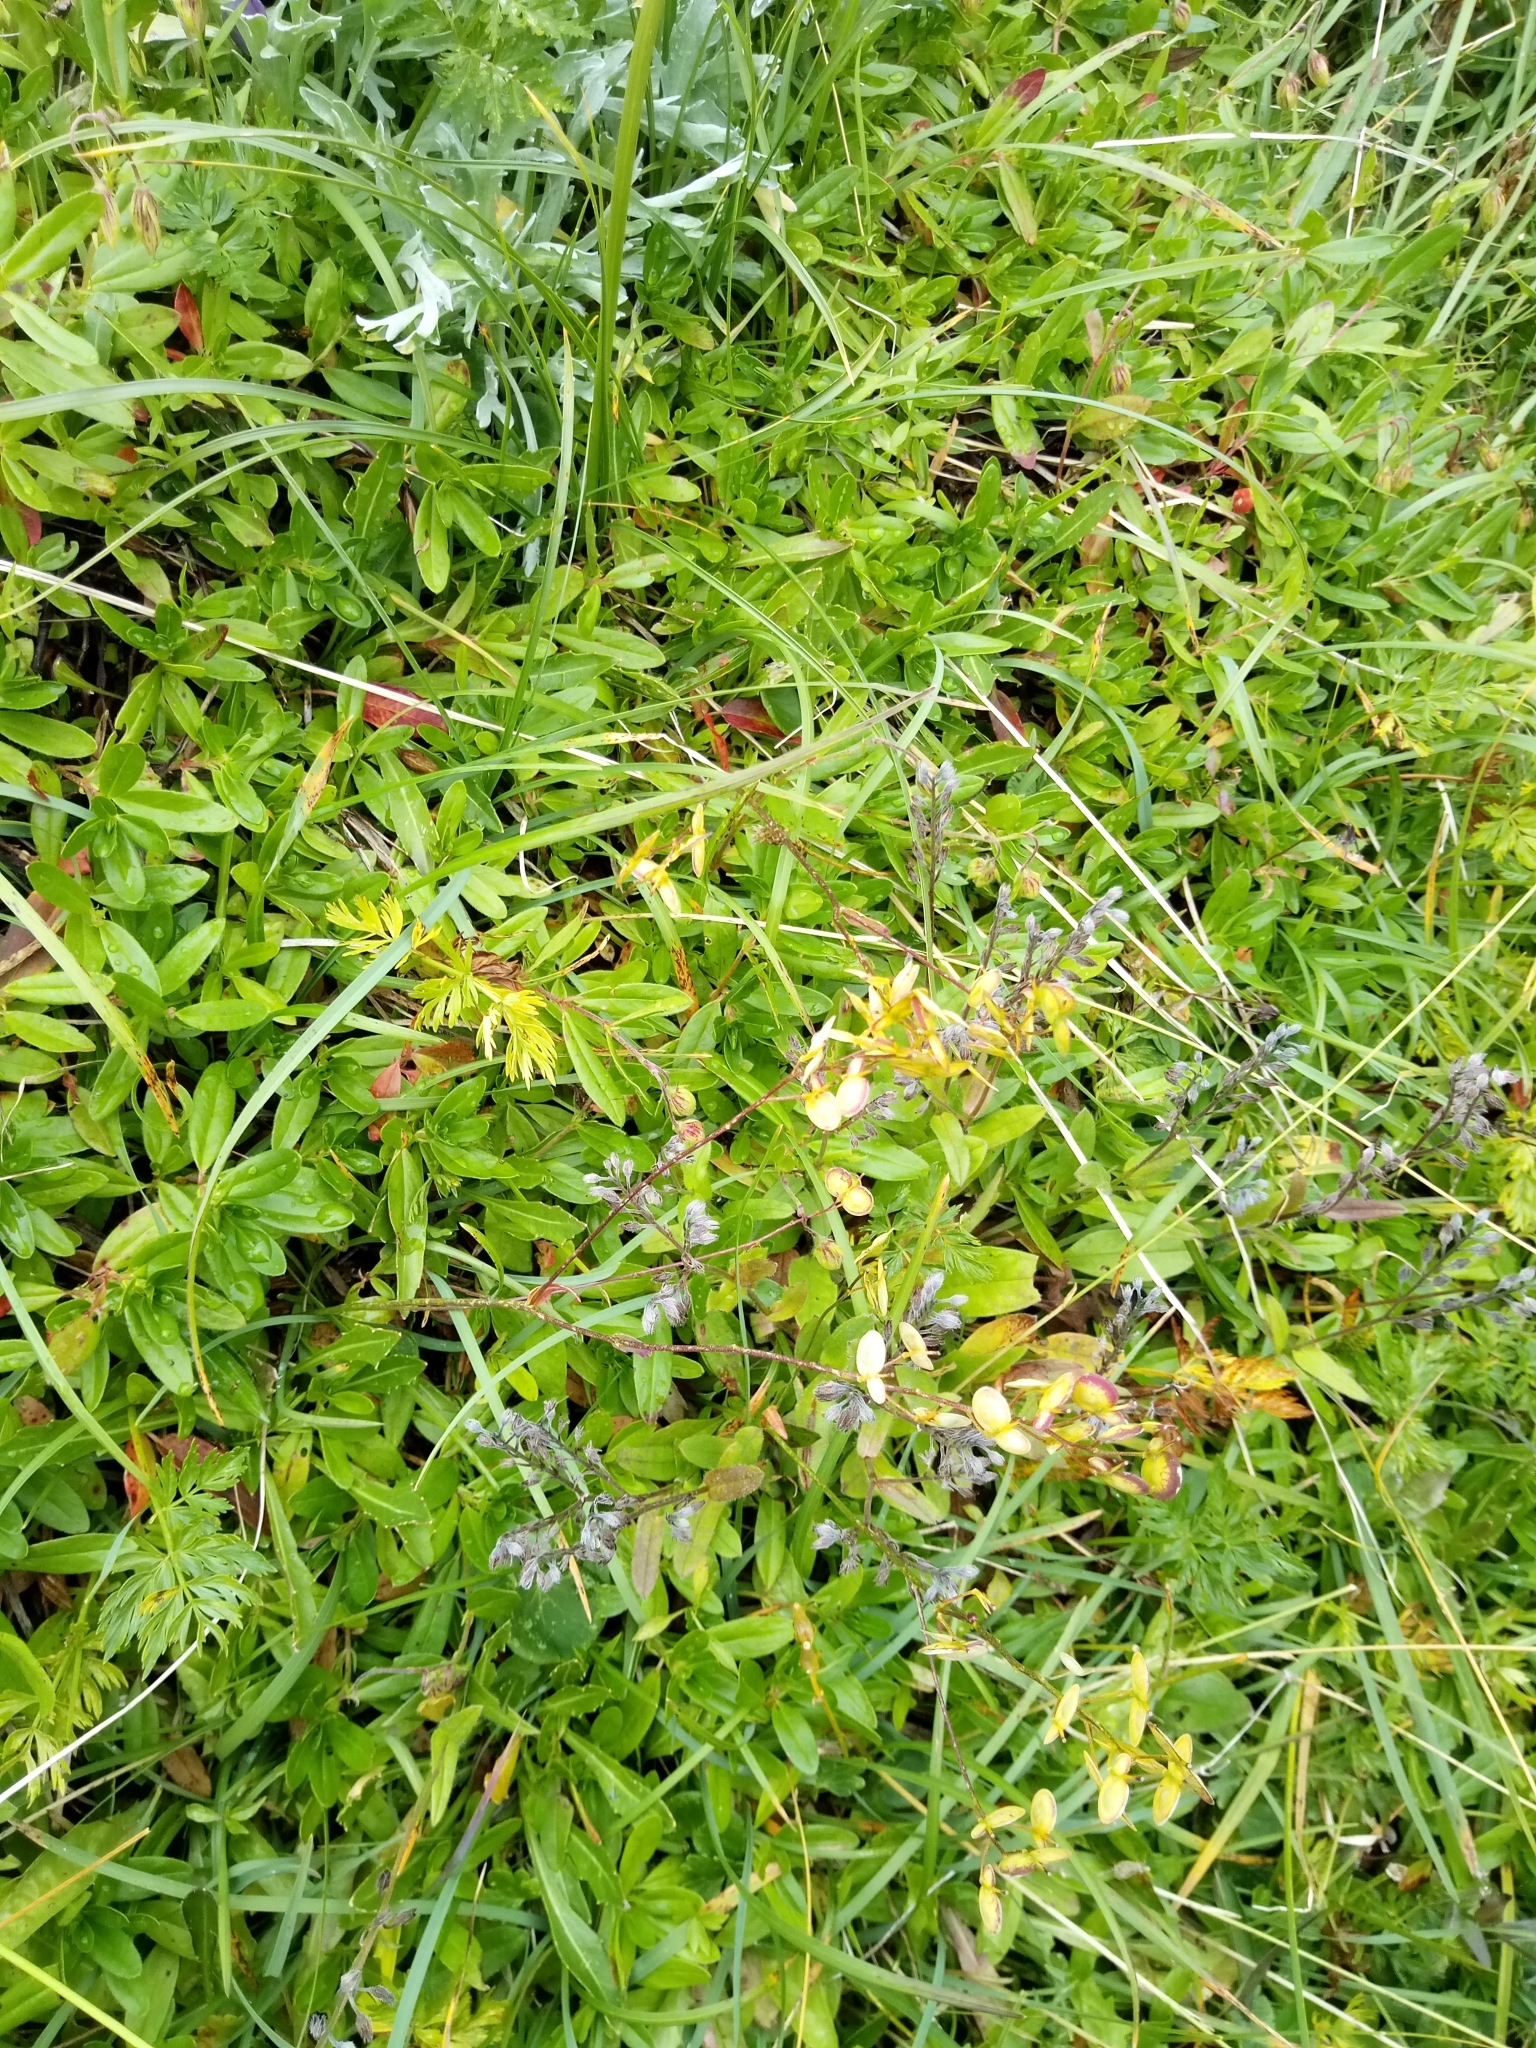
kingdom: Plantae
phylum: Tracheophyta
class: Magnoliopsida
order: Brassicales
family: Brassicaceae
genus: Biscutella
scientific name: Biscutella laevigata
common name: Buckler mustard
